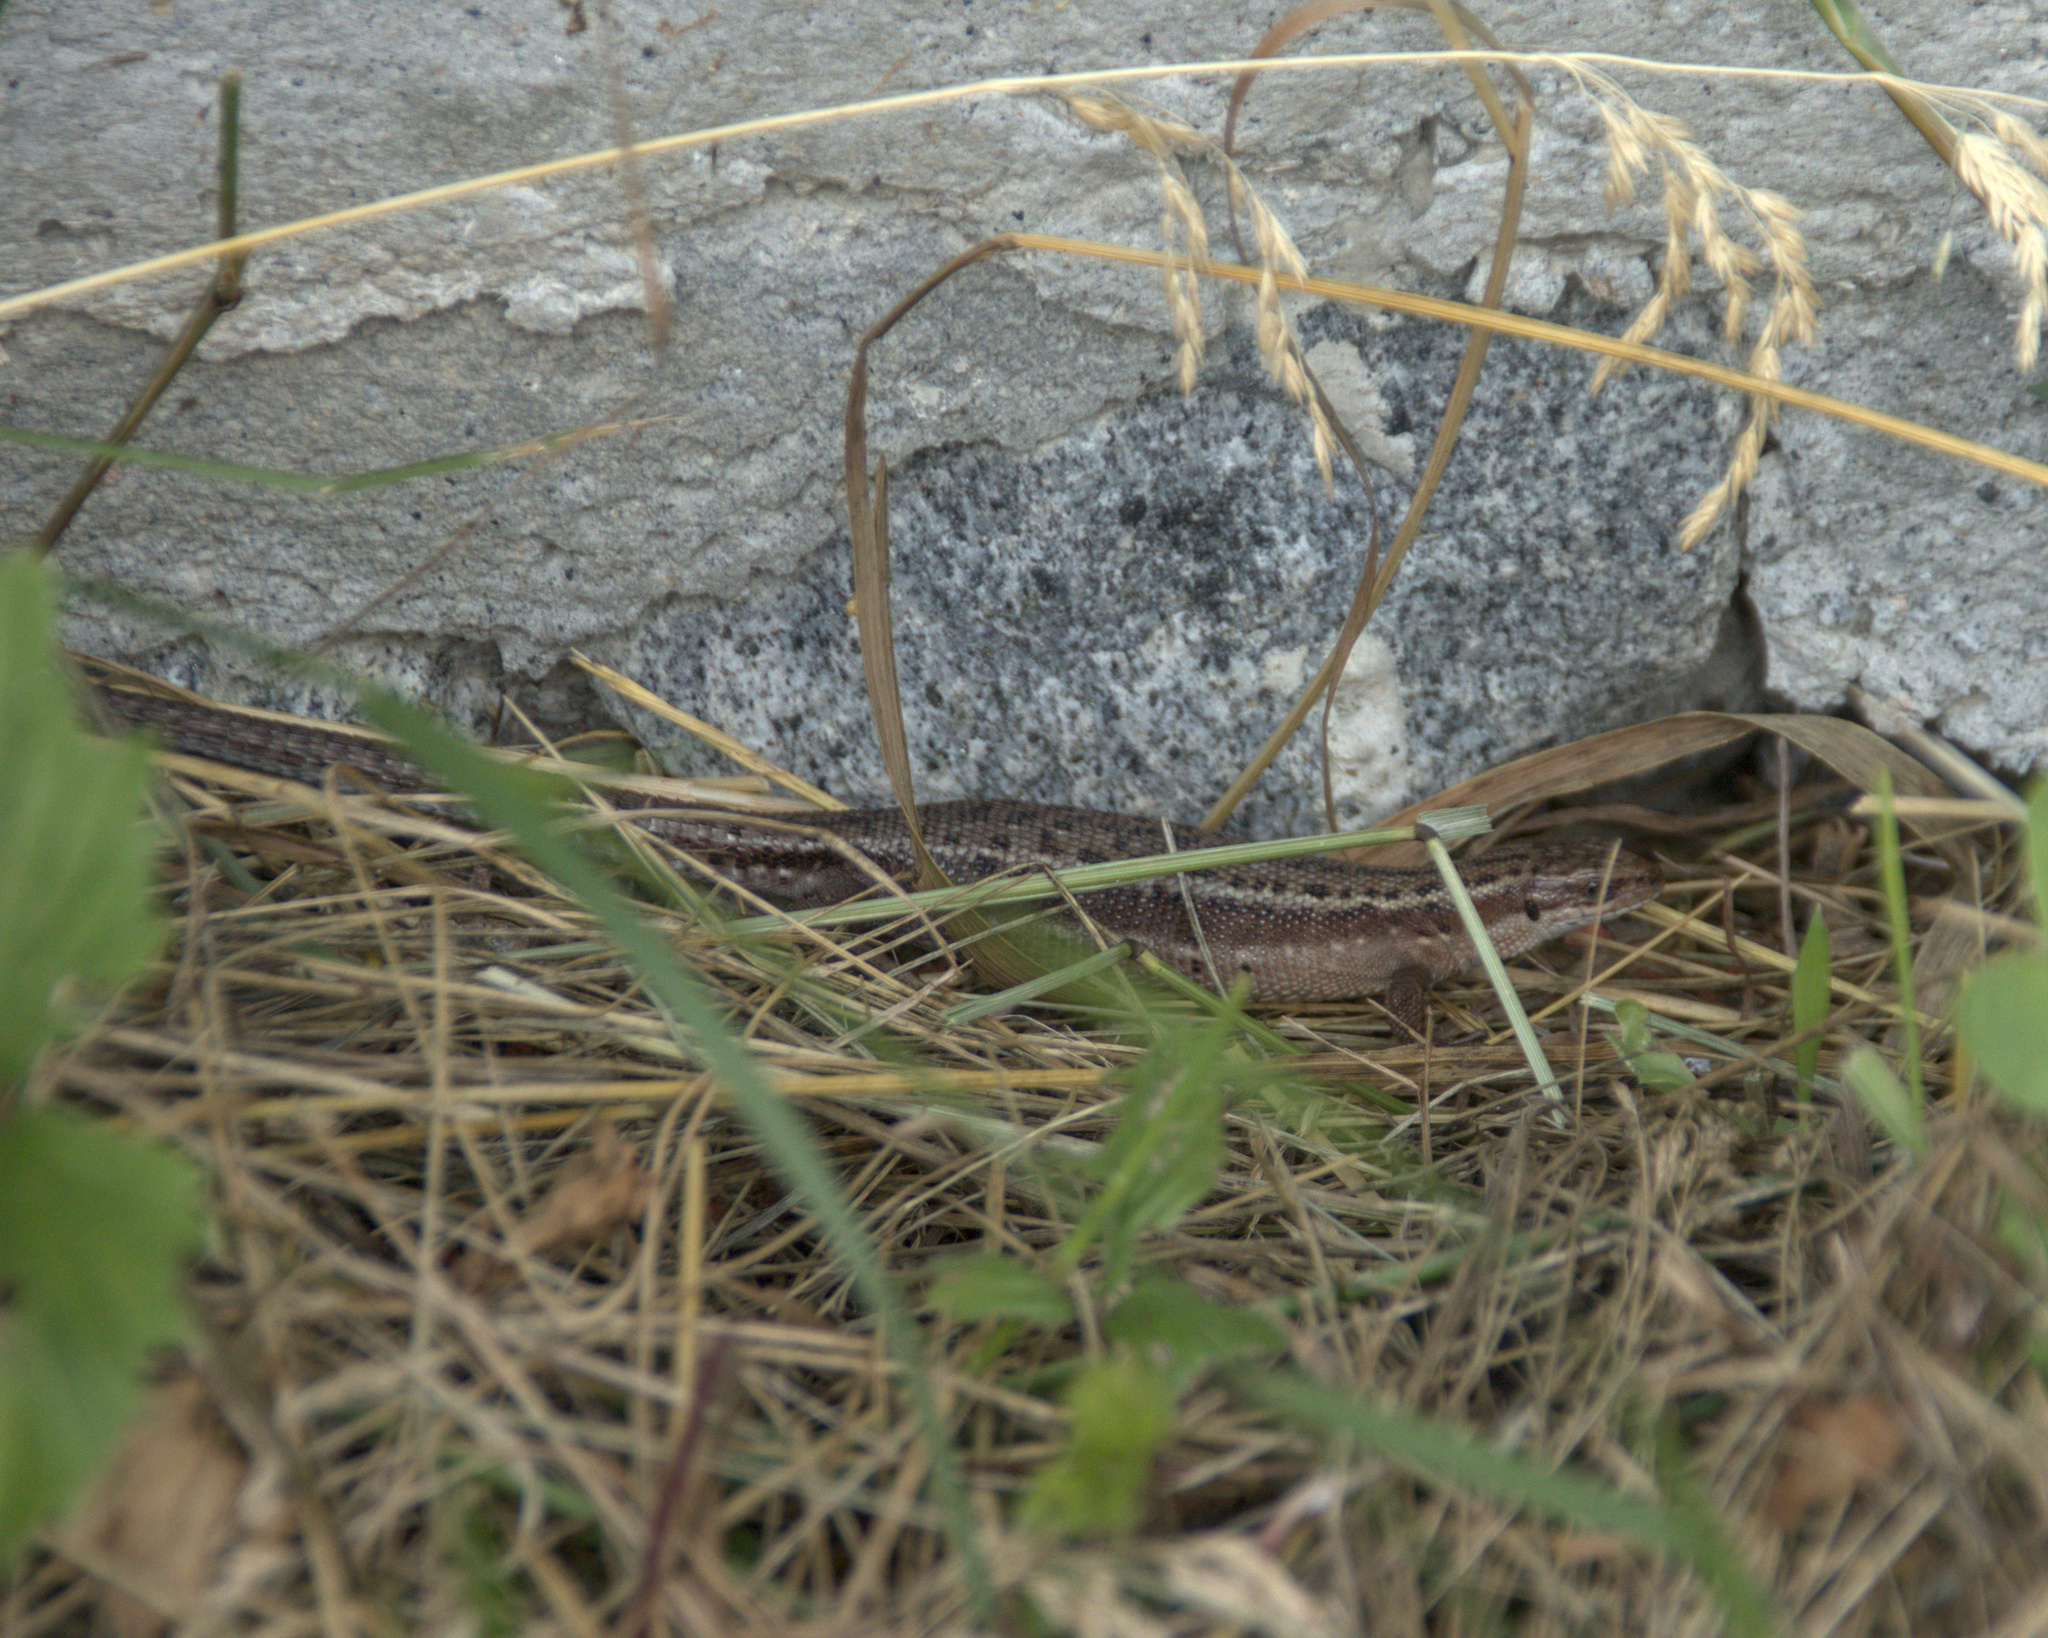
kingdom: Animalia
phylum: Chordata
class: Squamata
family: Lacertidae
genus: Zootoca
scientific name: Zootoca vivipara
